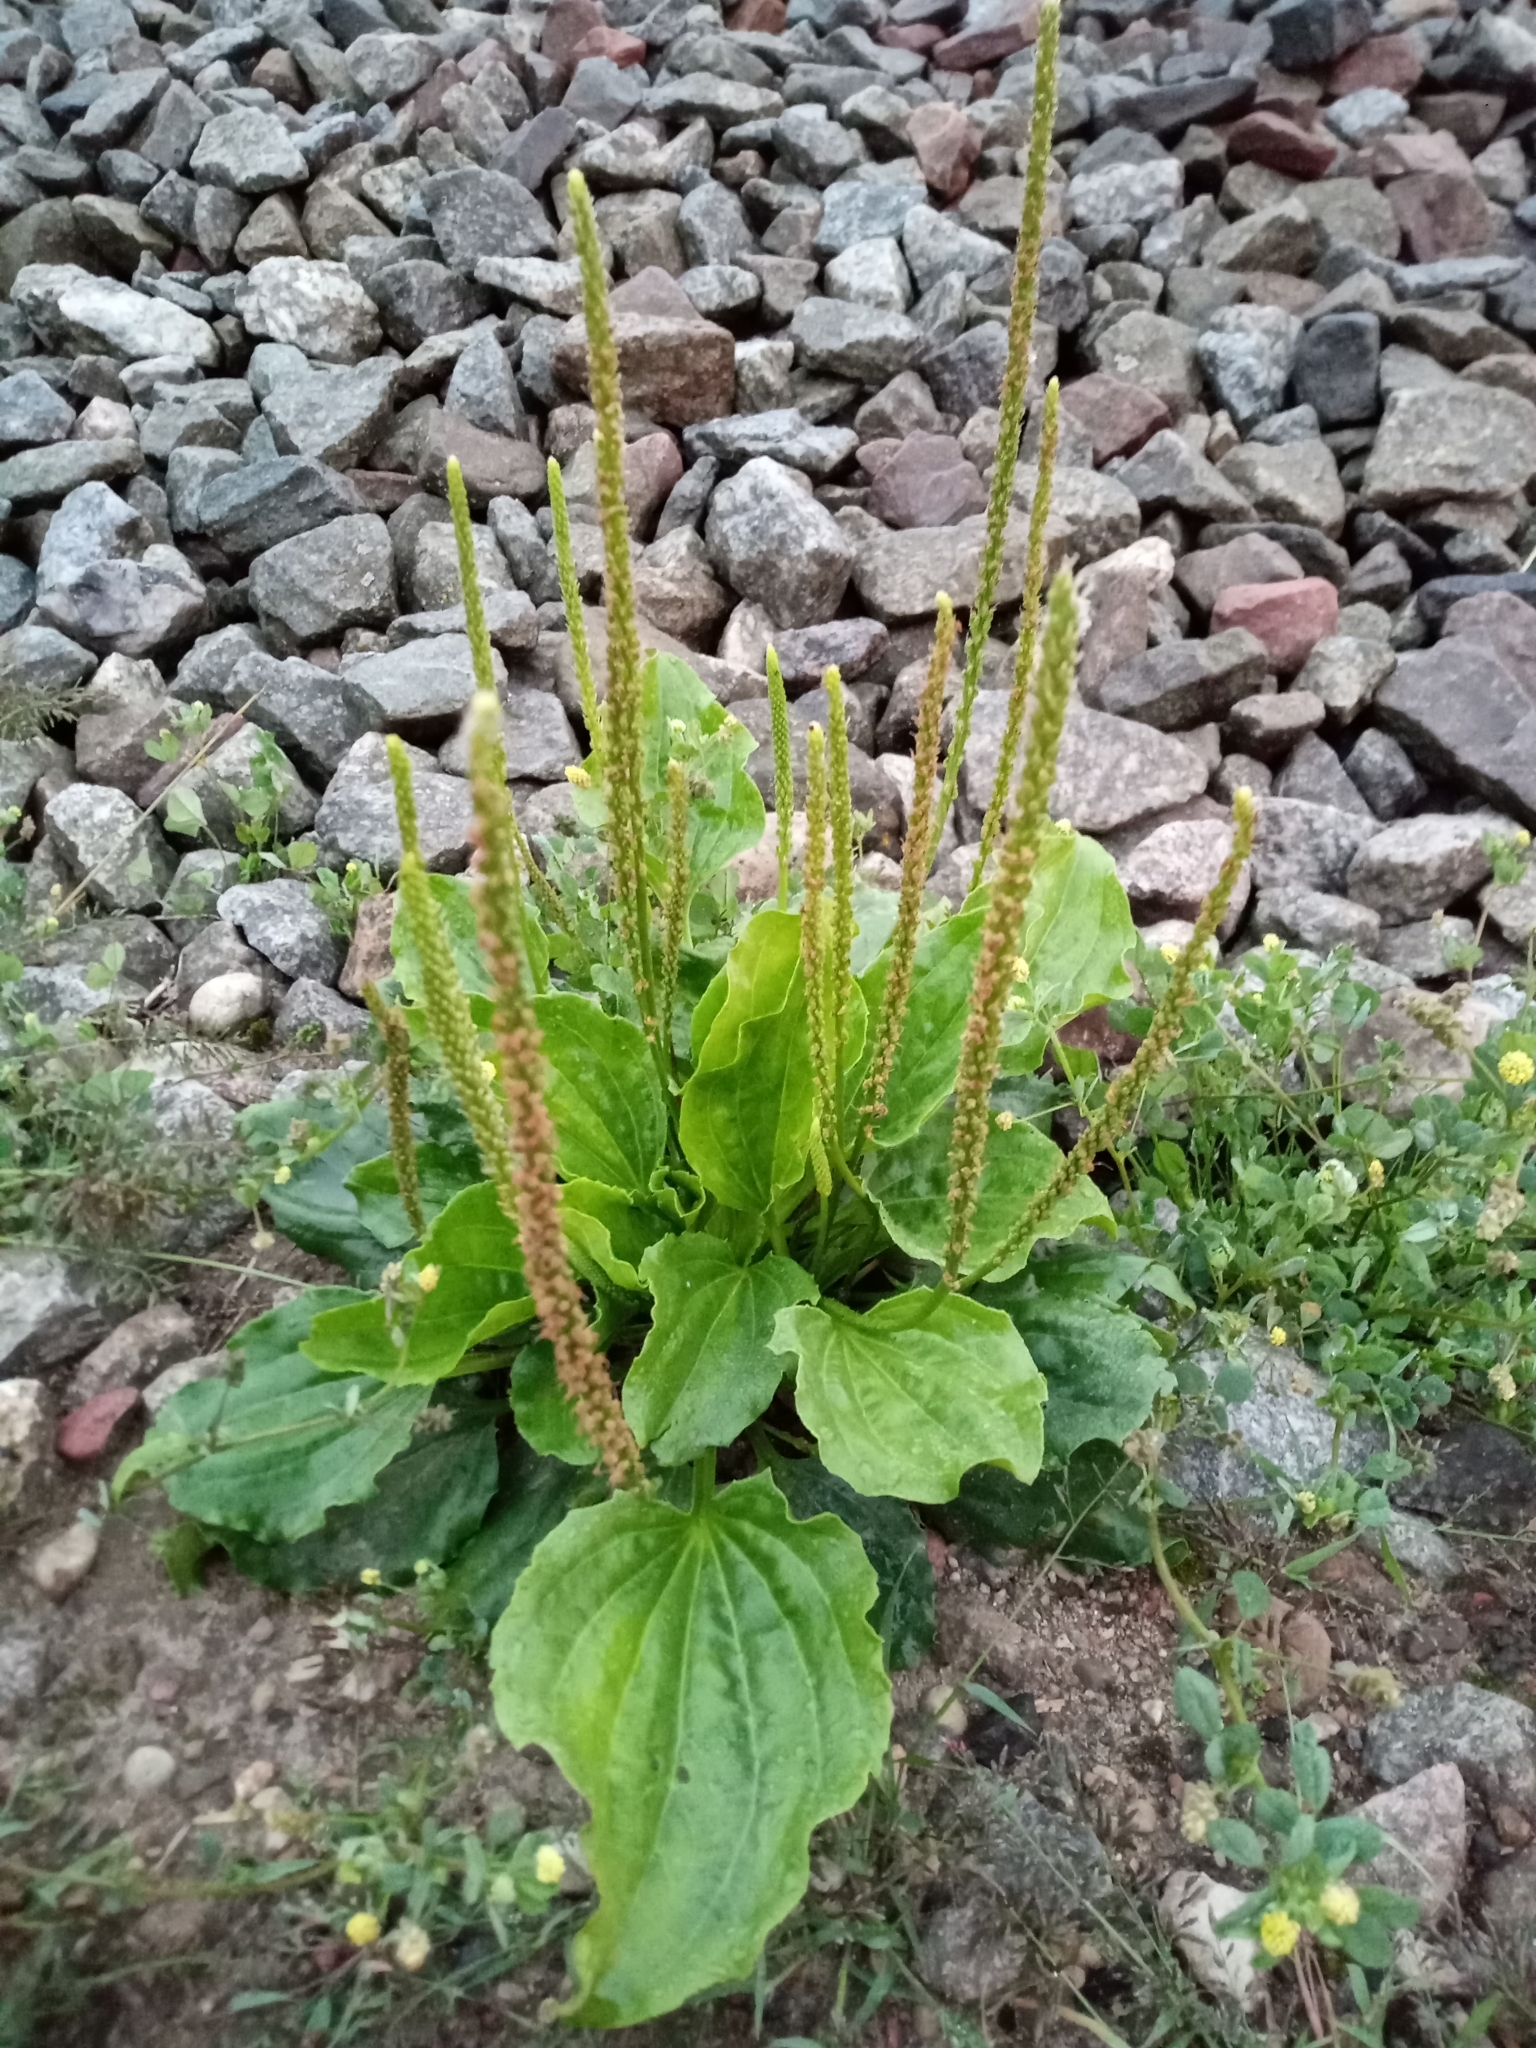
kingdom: Plantae
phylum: Tracheophyta
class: Magnoliopsida
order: Lamiales
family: Plantaginaceae
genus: Plantago
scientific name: Plantago major
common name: Common plantain
